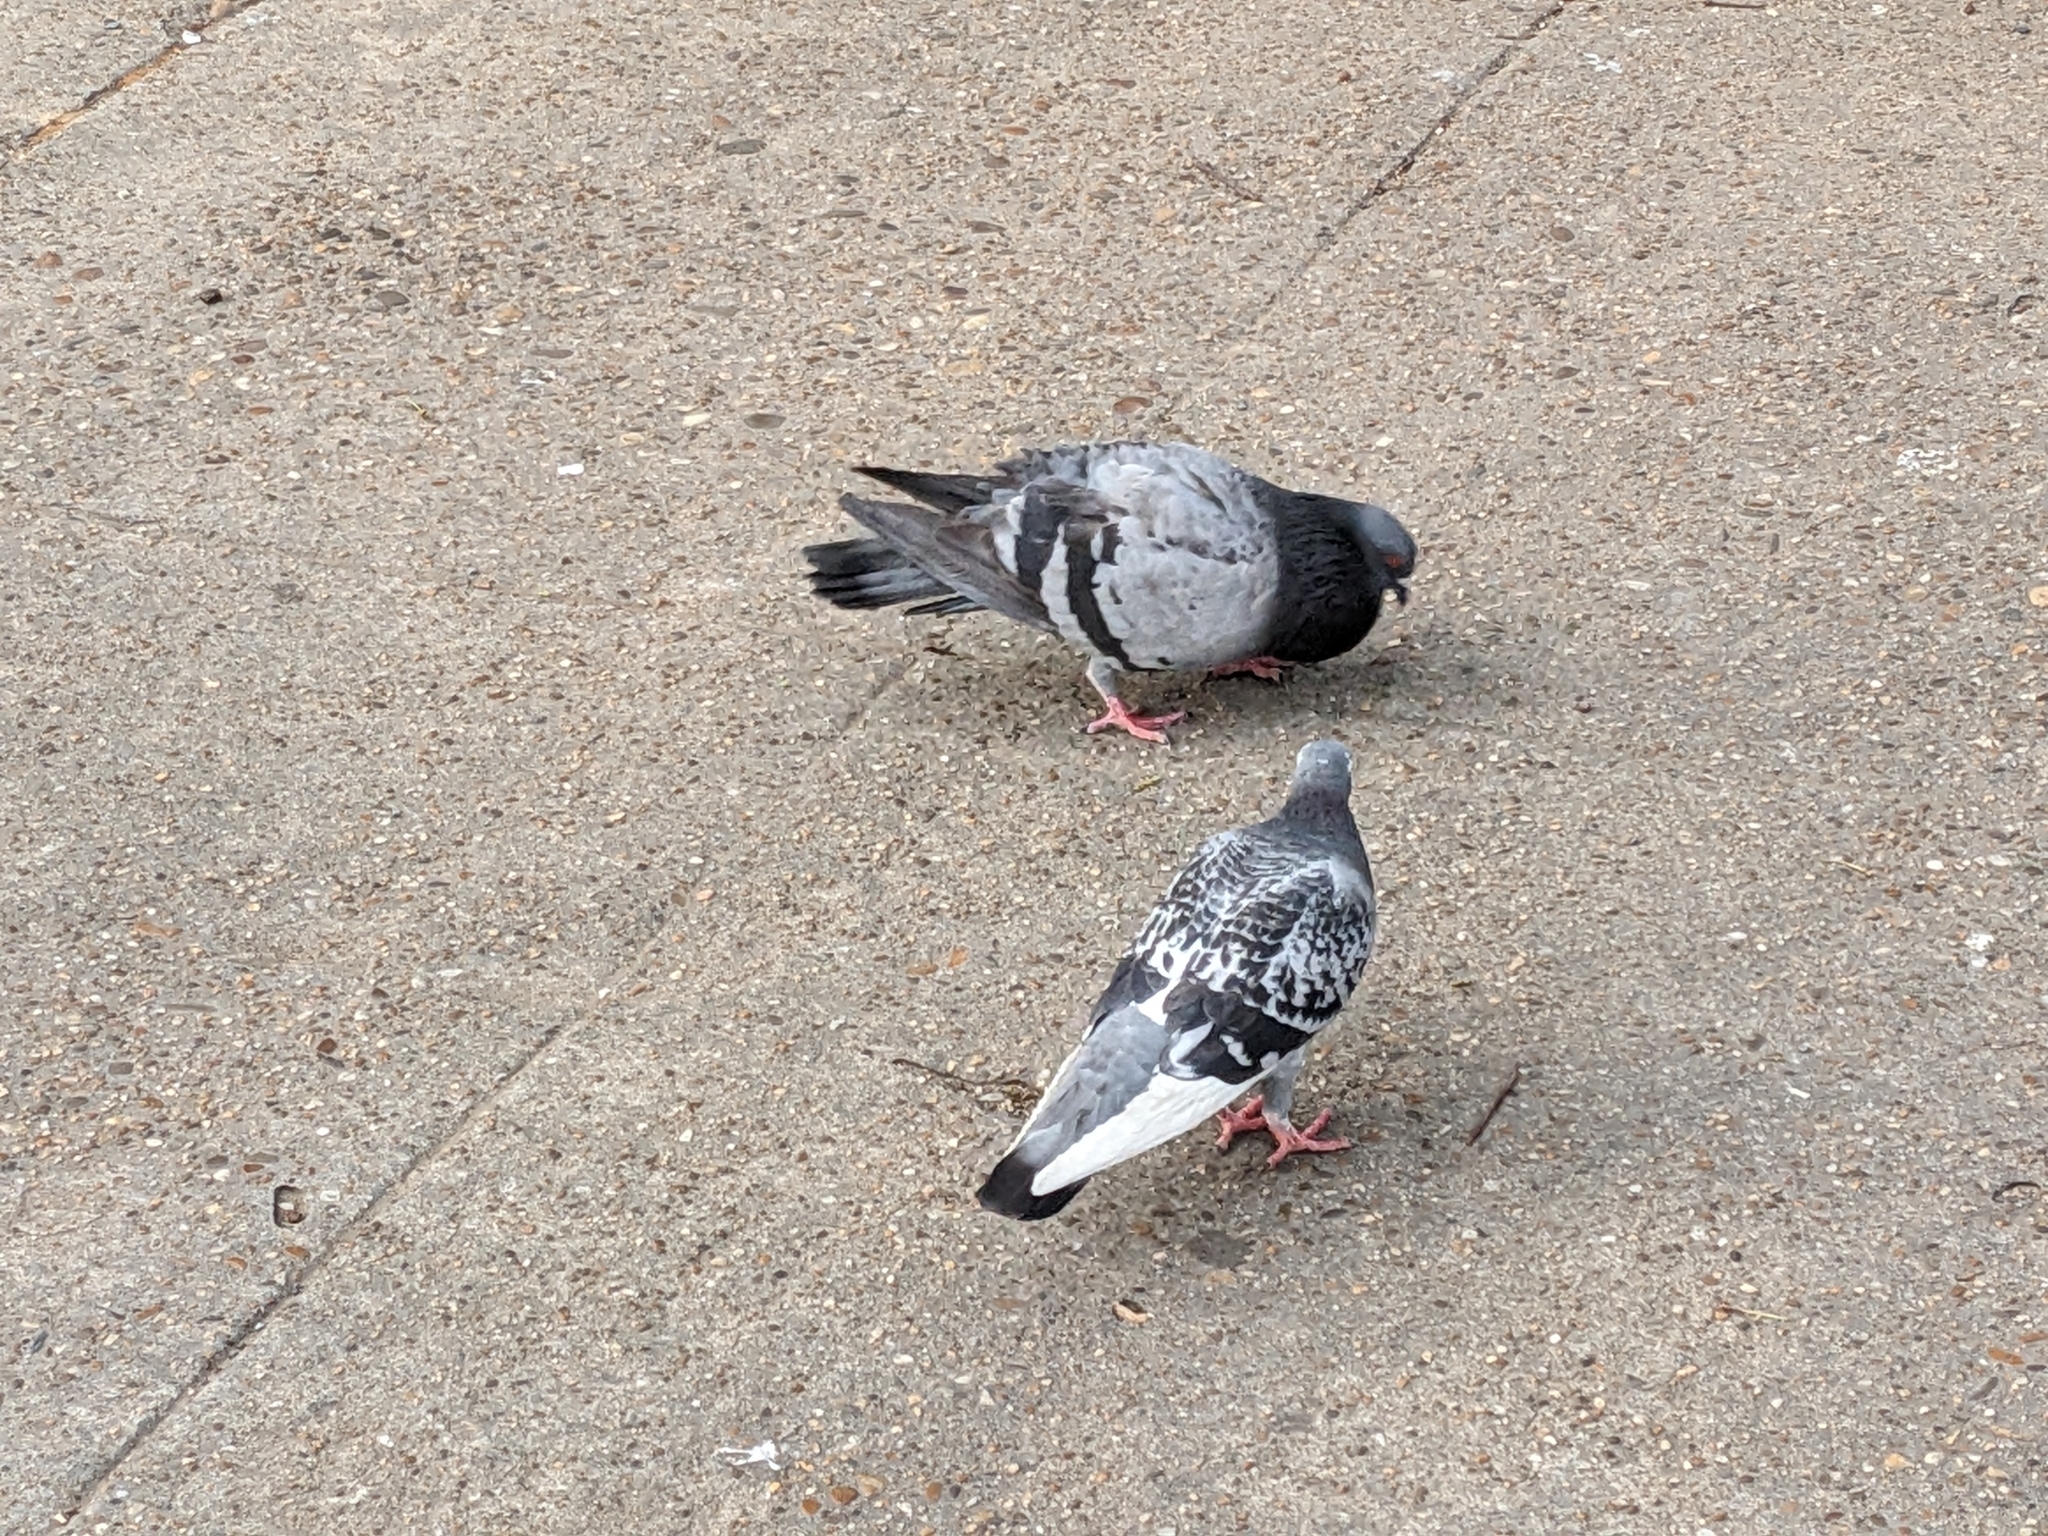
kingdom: Animalia
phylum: Chordata
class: Aves
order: Columbiformes
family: Columbidae
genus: Columba
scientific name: Columba livia
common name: Rock pigeon
